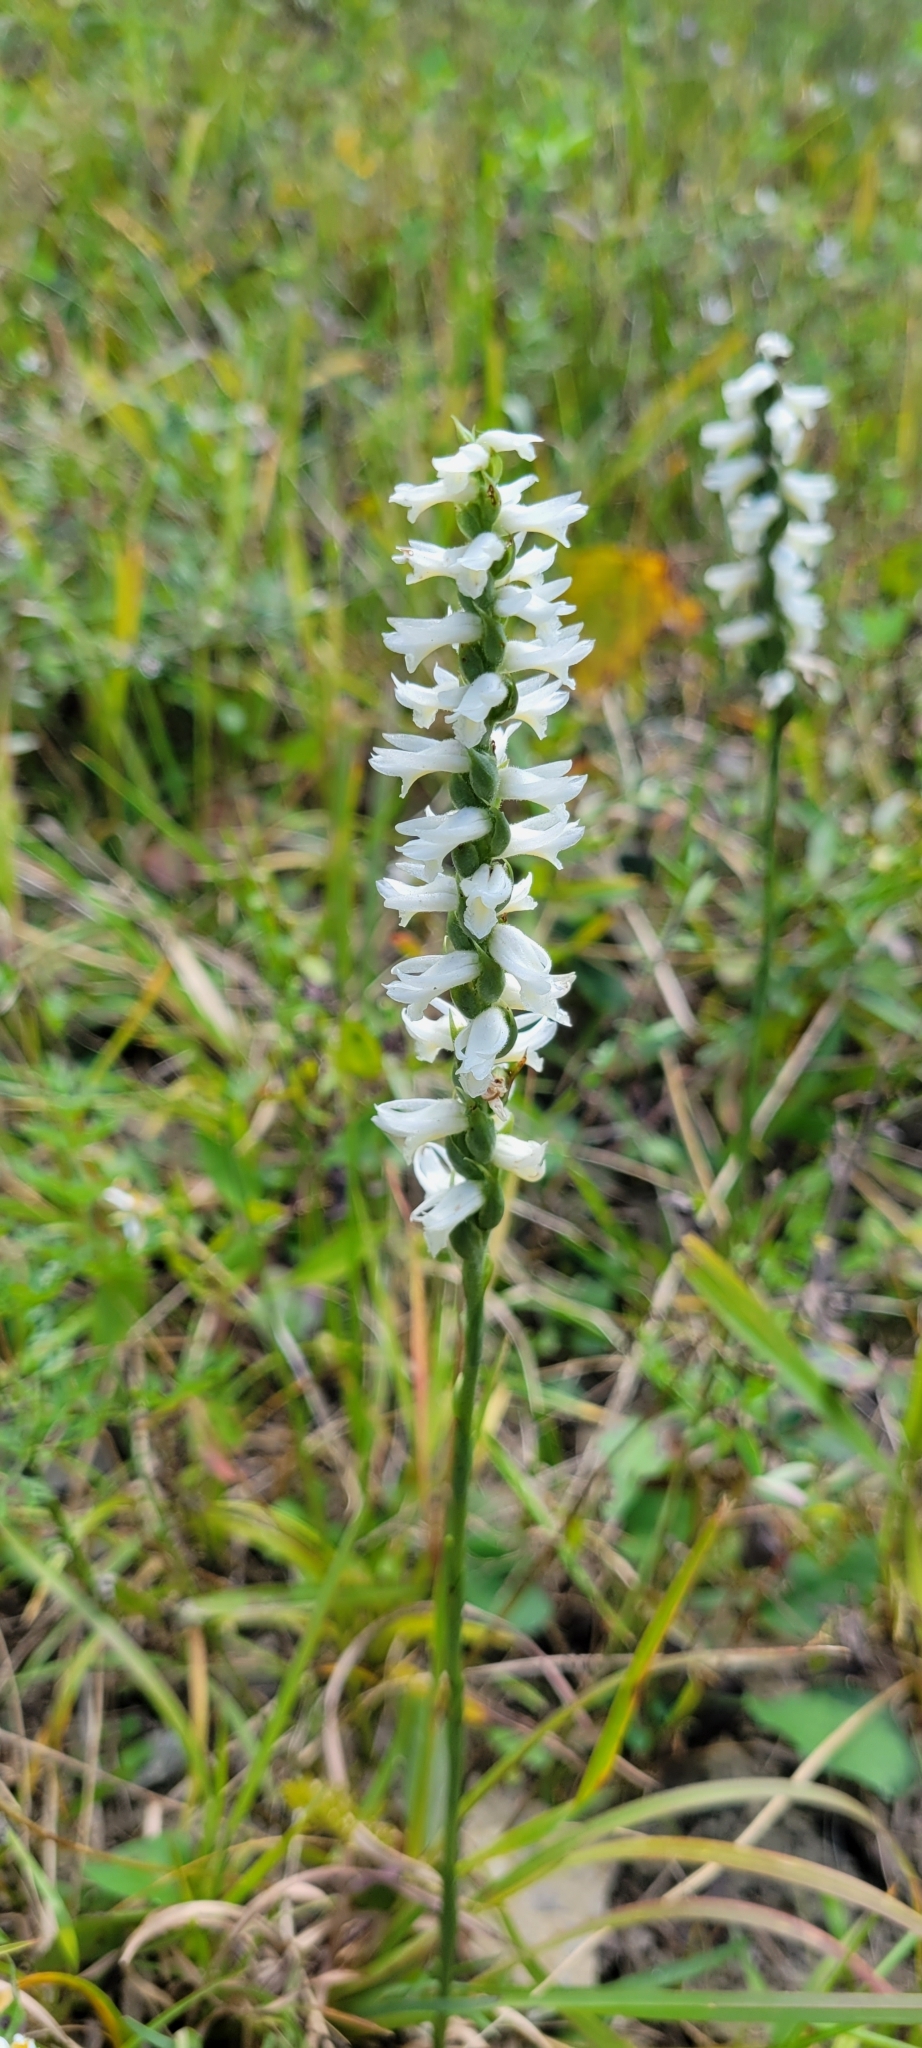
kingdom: Plantae
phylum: Tracheophyta
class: Liliopsida
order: Asparagales
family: Orchidaceae
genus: Spiranthes
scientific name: Spiranthes magnicamporum
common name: Great plains ladies'-tresses
